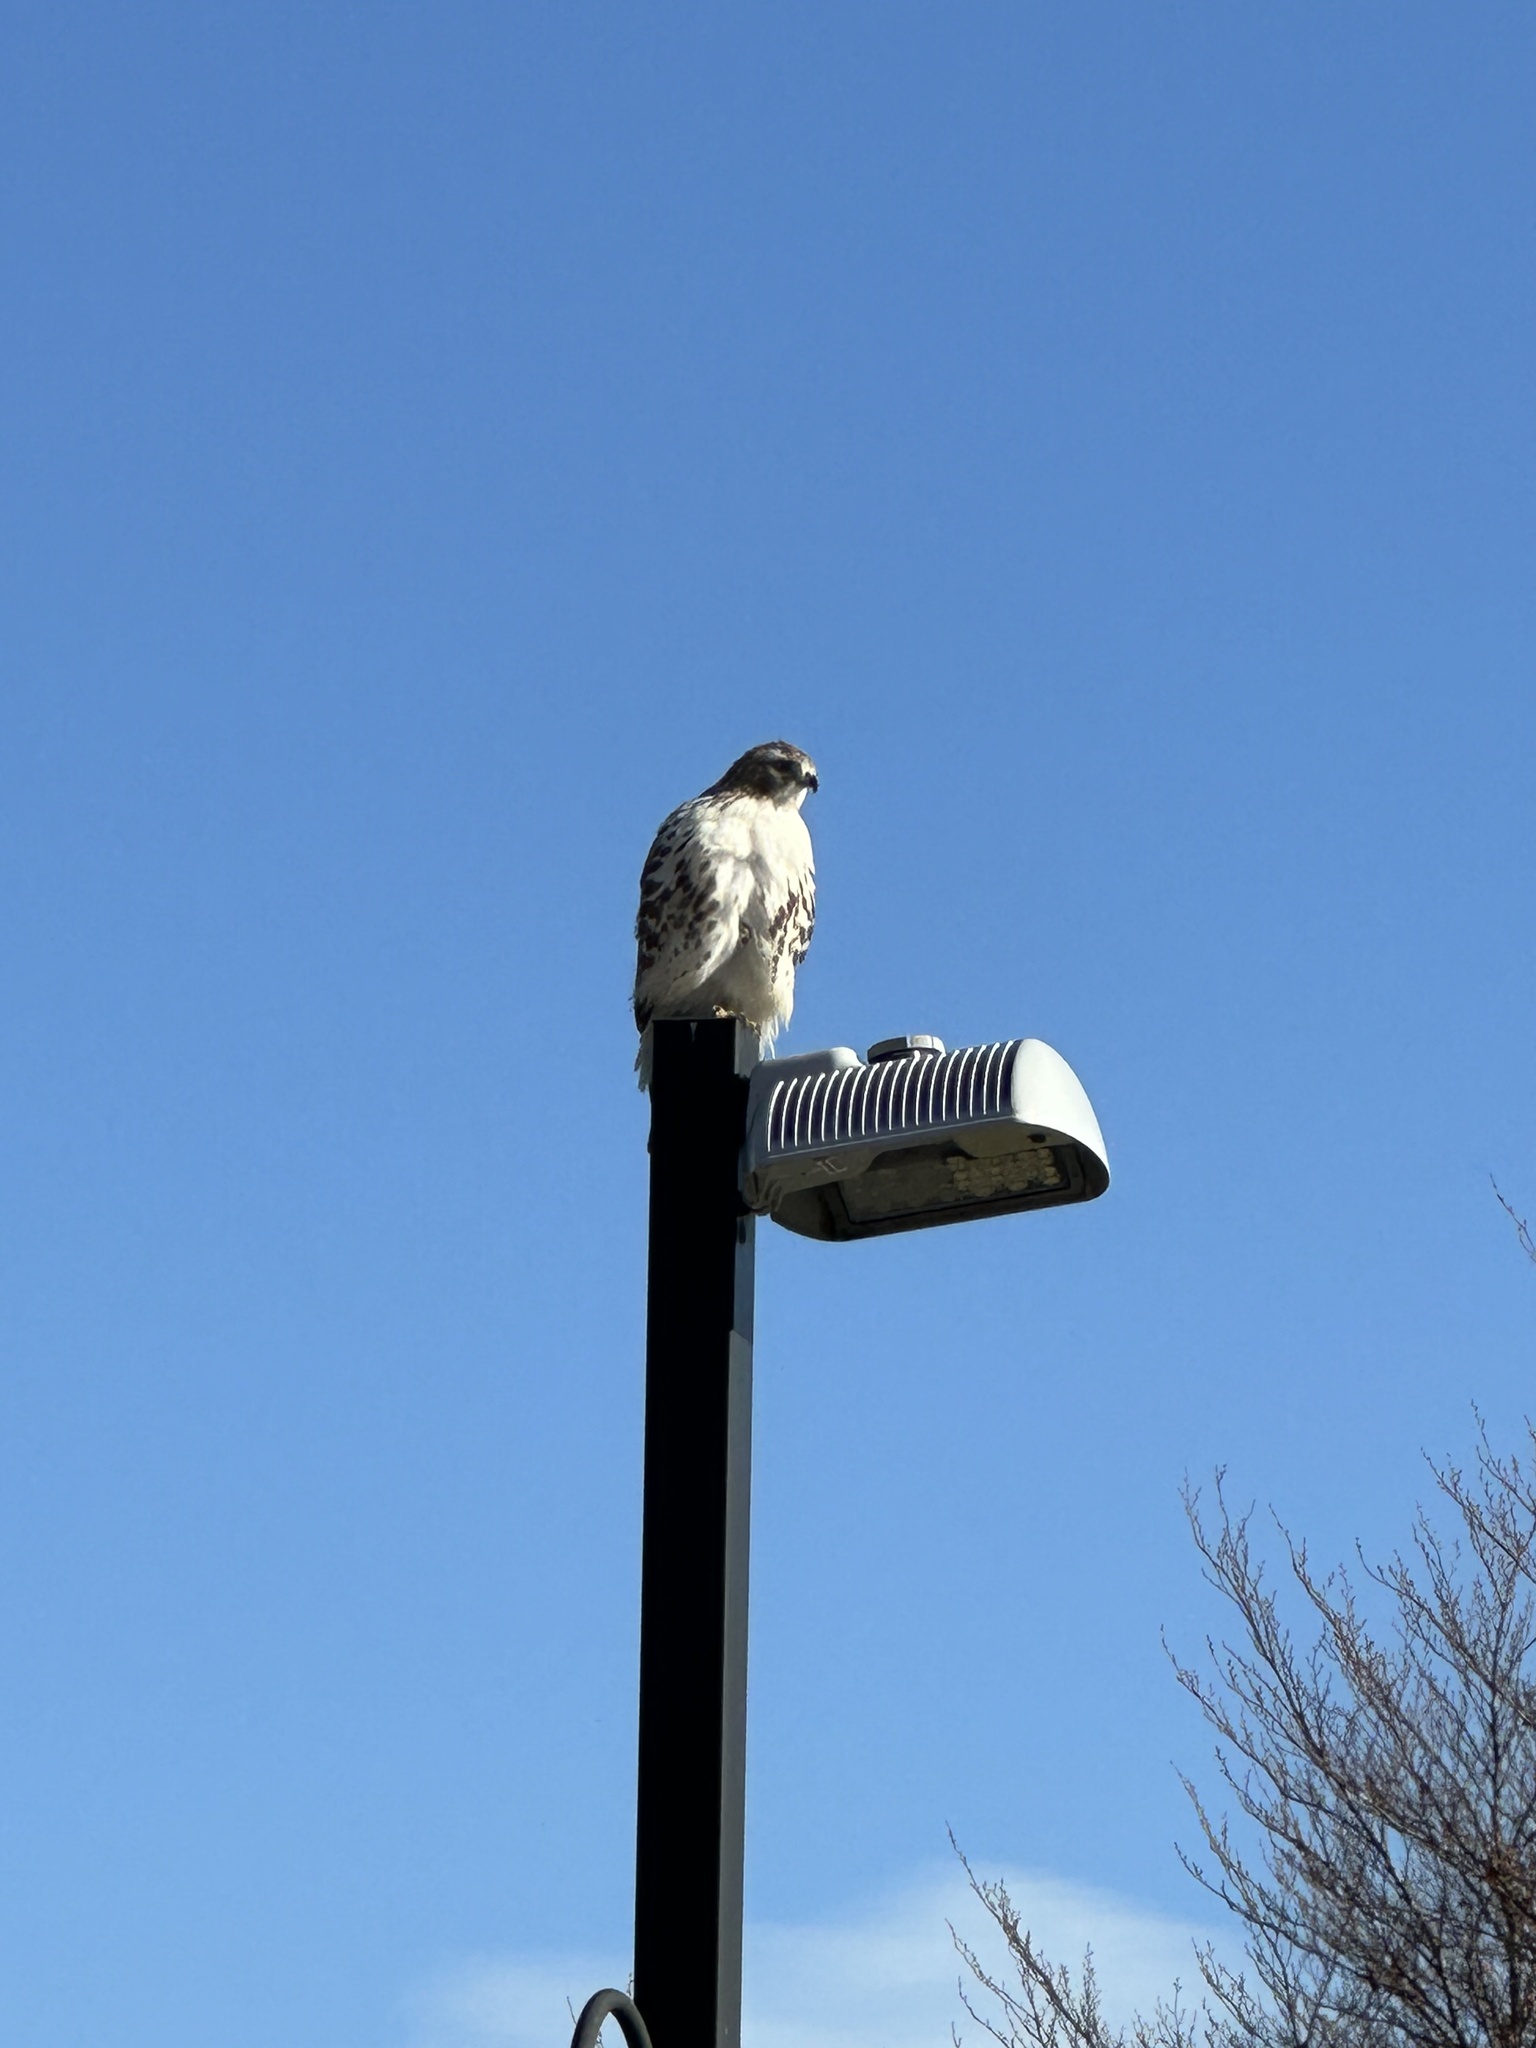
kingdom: Animalia
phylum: Chordata
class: Aves
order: Accipitriformes
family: Accipitridae
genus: Buteo
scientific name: Buteo jamaicensis
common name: Red-tailed hawk
